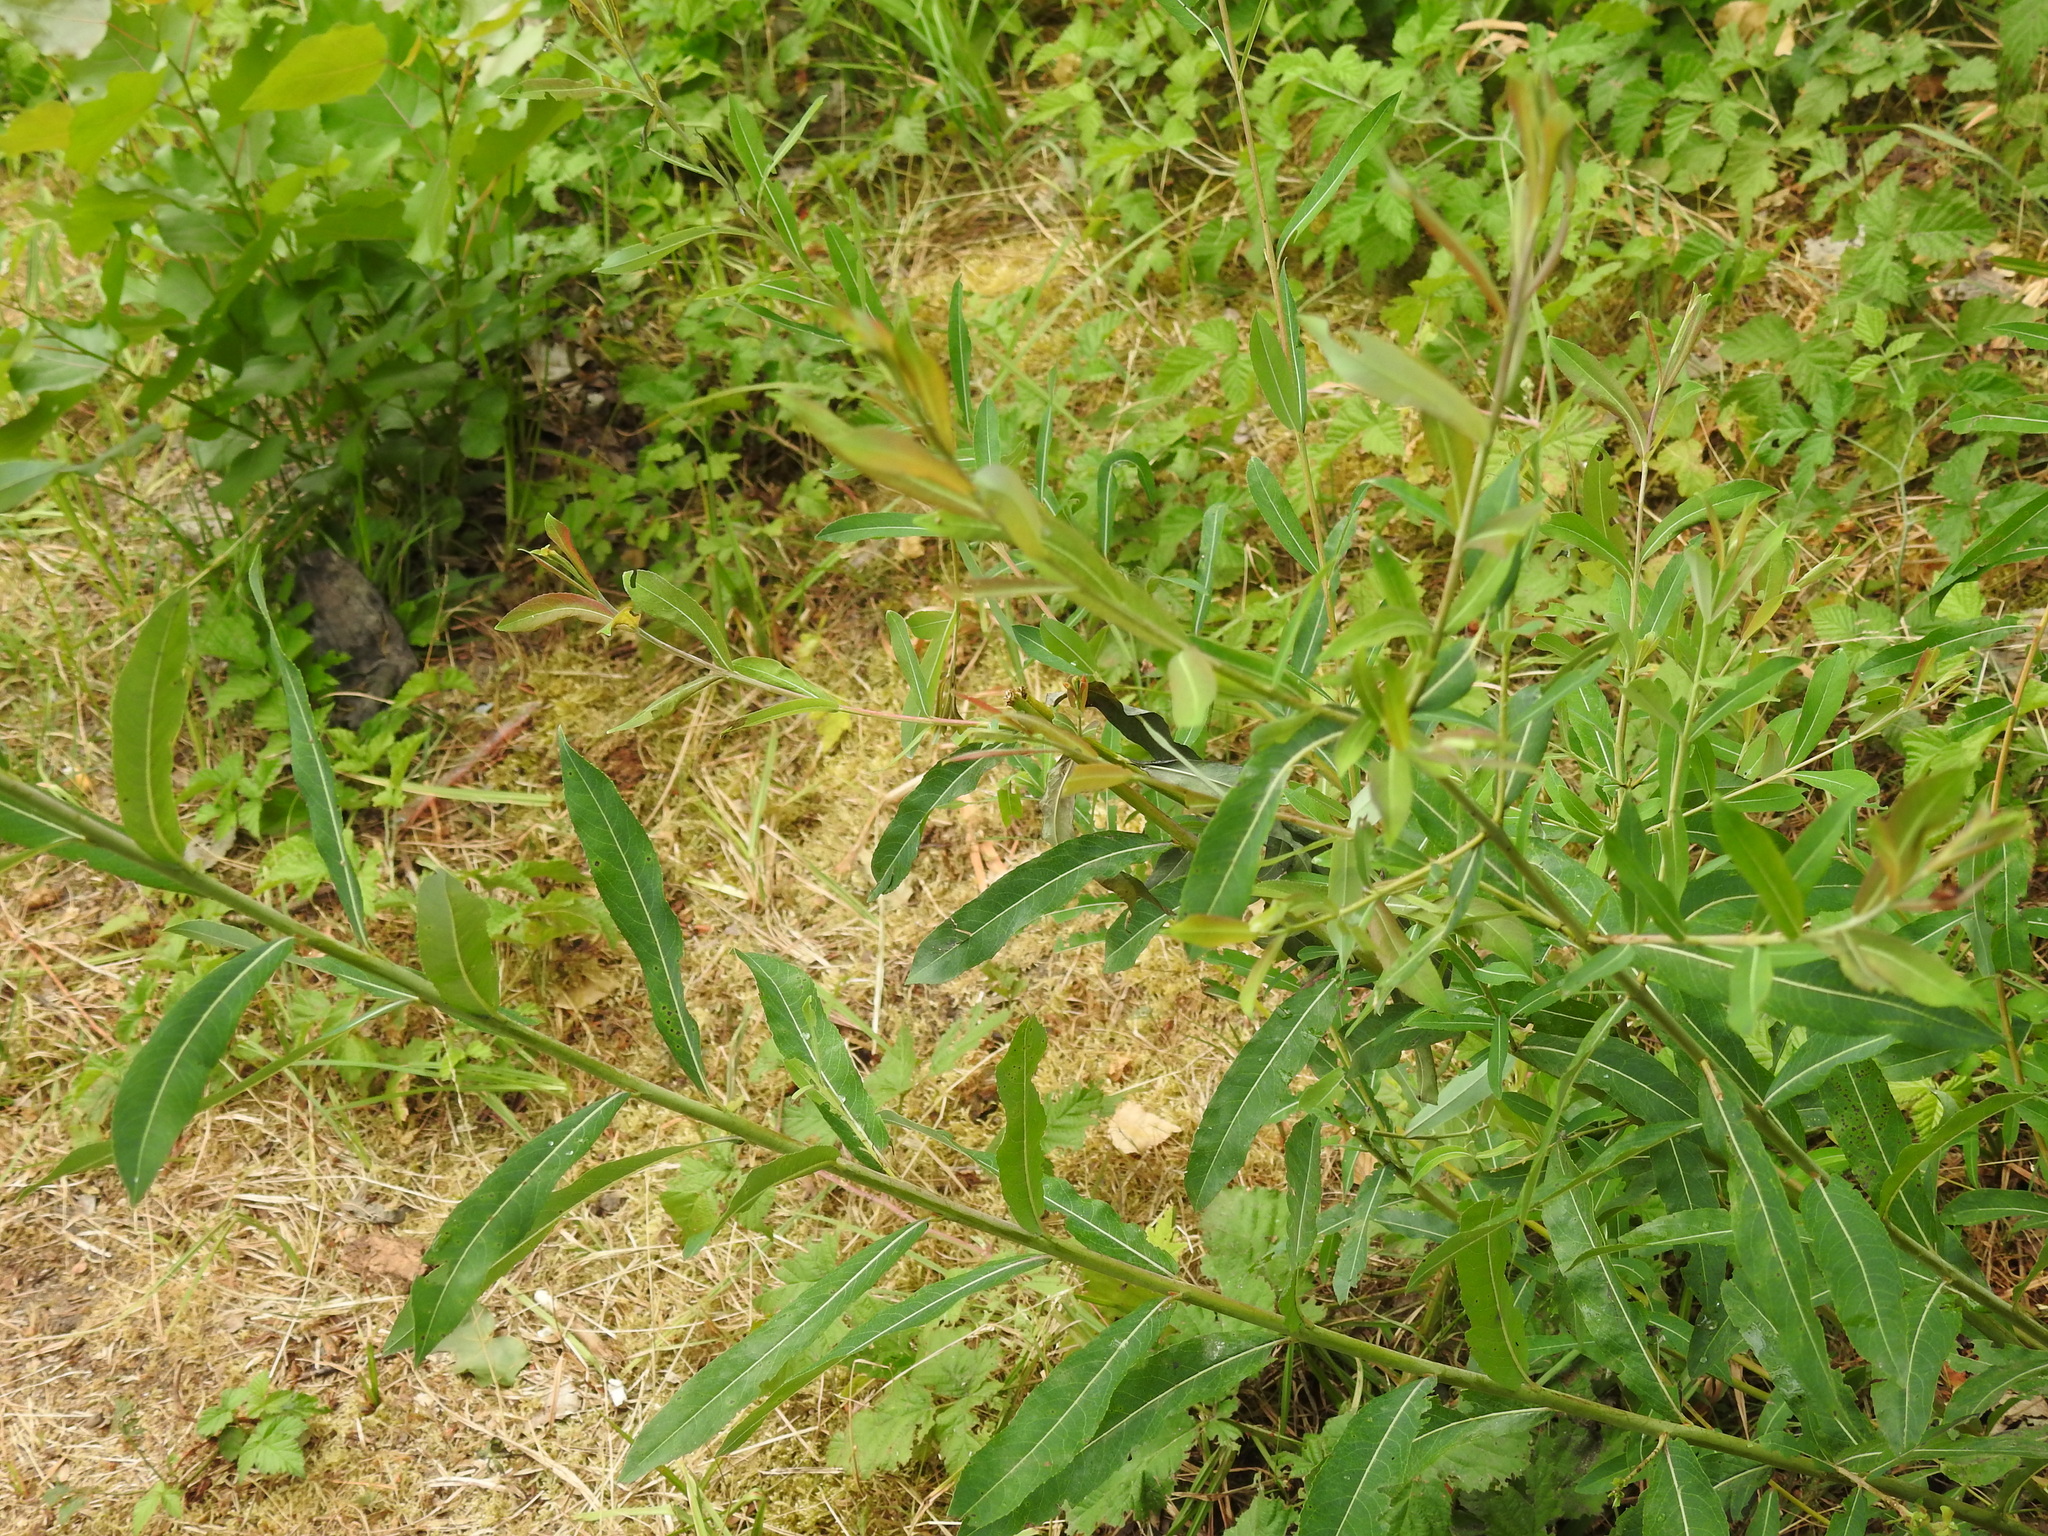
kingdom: Plantae
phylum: Tracheophyta
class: Magnoliopsida
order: Malpighiales
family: Salicaceae
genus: Salix
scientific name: Salix purpurea
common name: Purple willow
